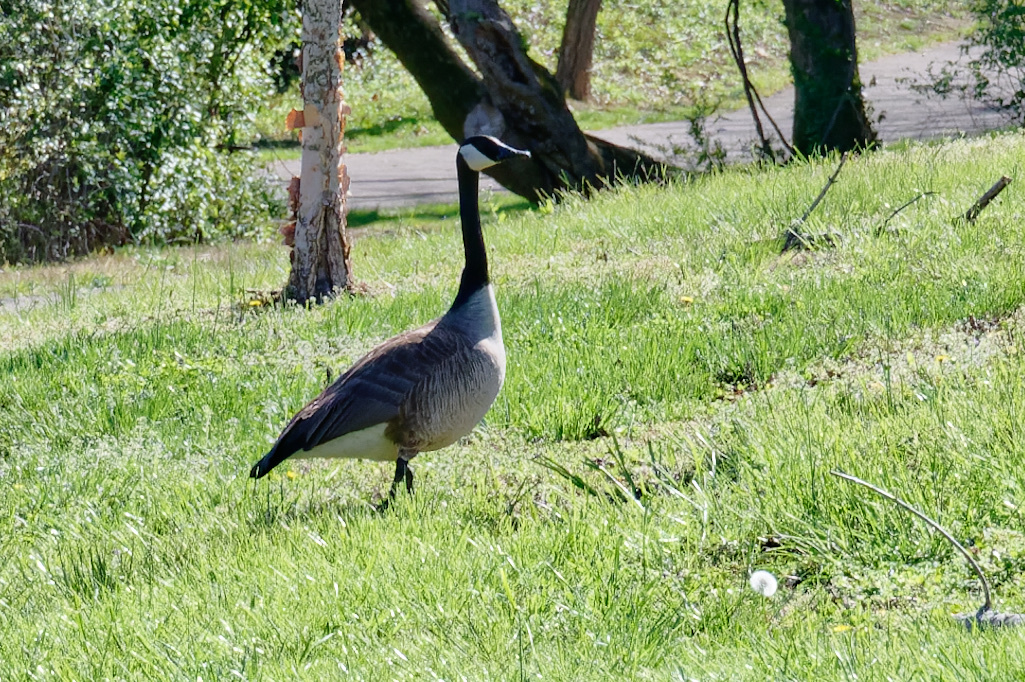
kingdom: Animalia
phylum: Chordata
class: Aves
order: Anseriformes
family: Anatidae
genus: Branta
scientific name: Branta canadensis
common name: Canada goose
